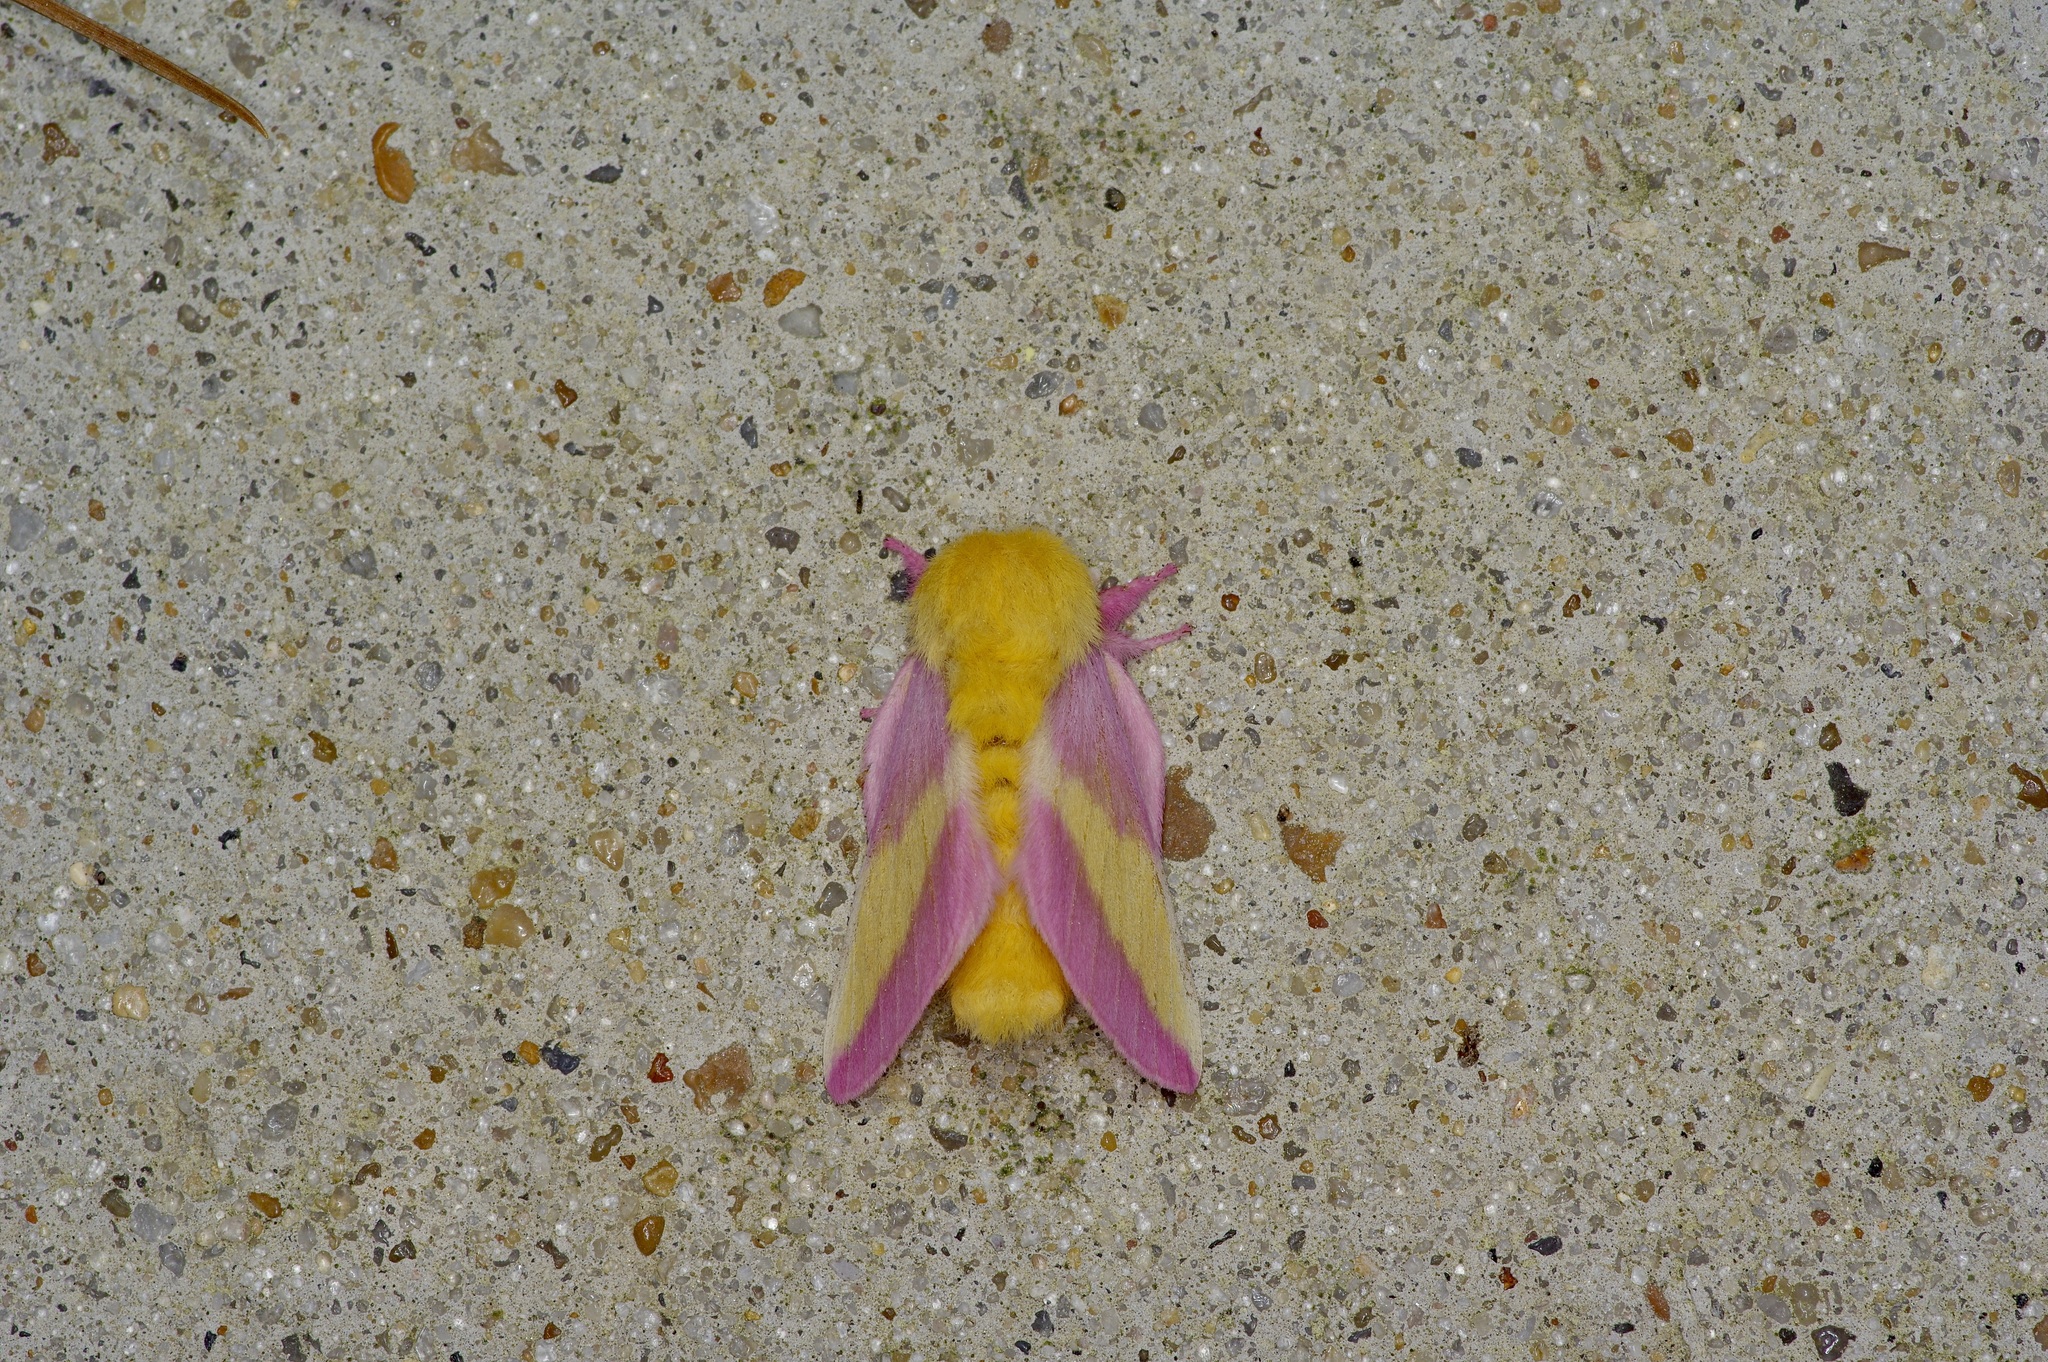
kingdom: Animalia
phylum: Arthropoda
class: Insecta
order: Lepidoptera
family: Saturniidae
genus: Dryocampa
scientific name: Dryocampa rubicunda
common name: Rosy maple moth
